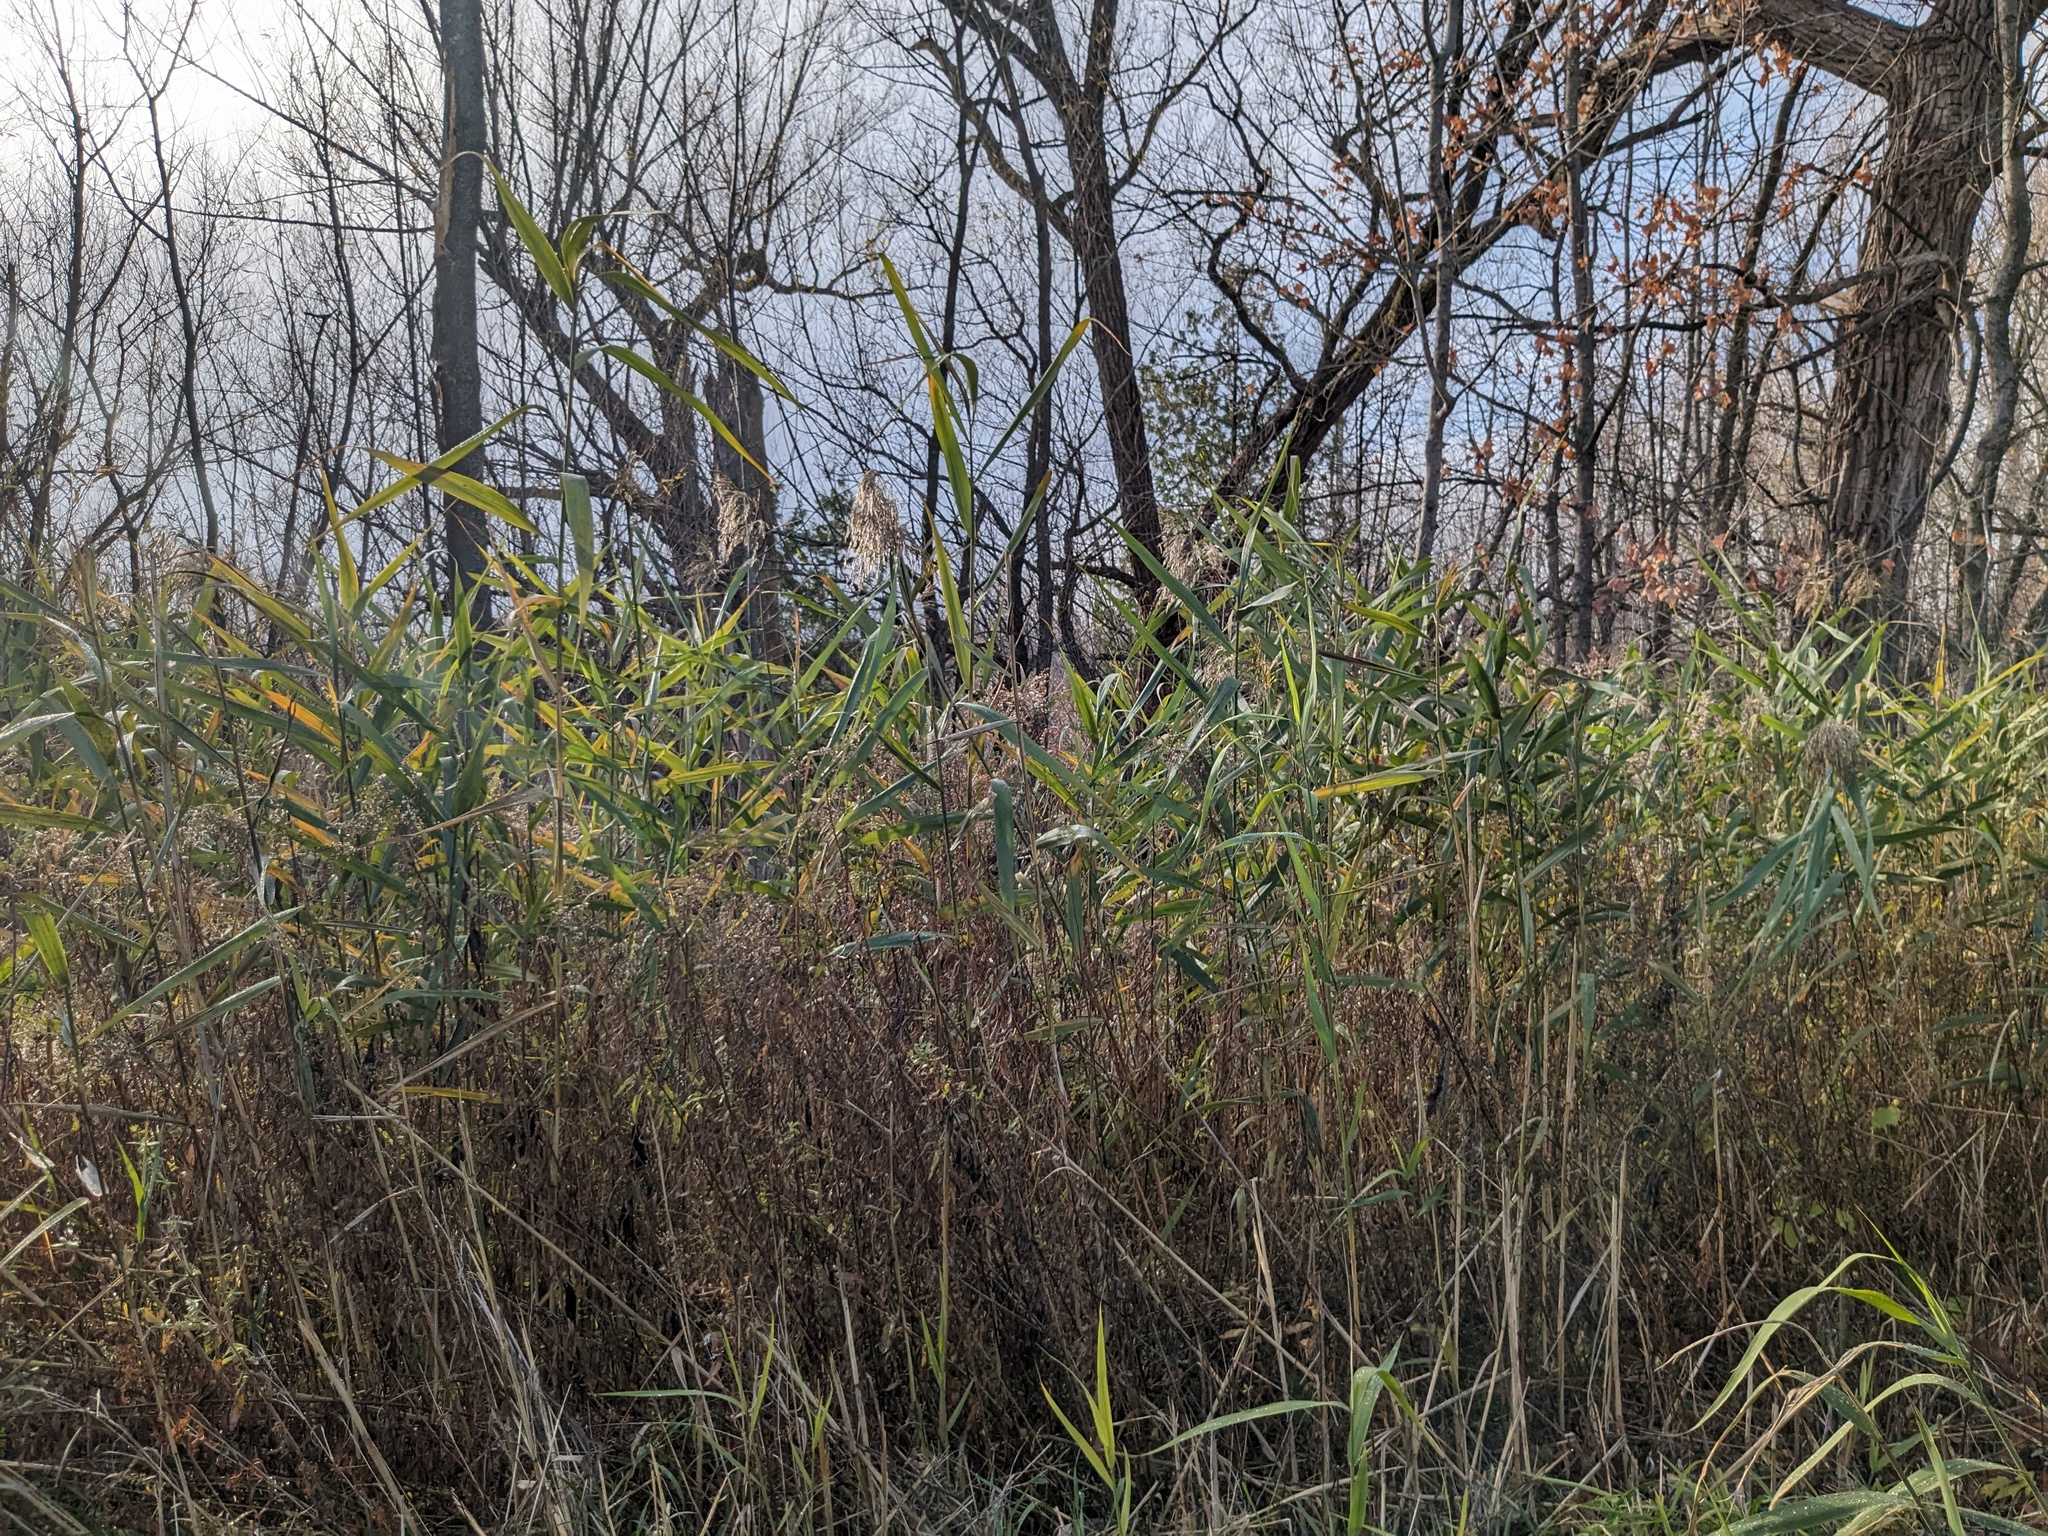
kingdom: Plantae
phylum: Tracheophyta
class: Liliopsida
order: Poales
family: Poaceae
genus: Phragmites
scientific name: Phragmites australis
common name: Common reed
